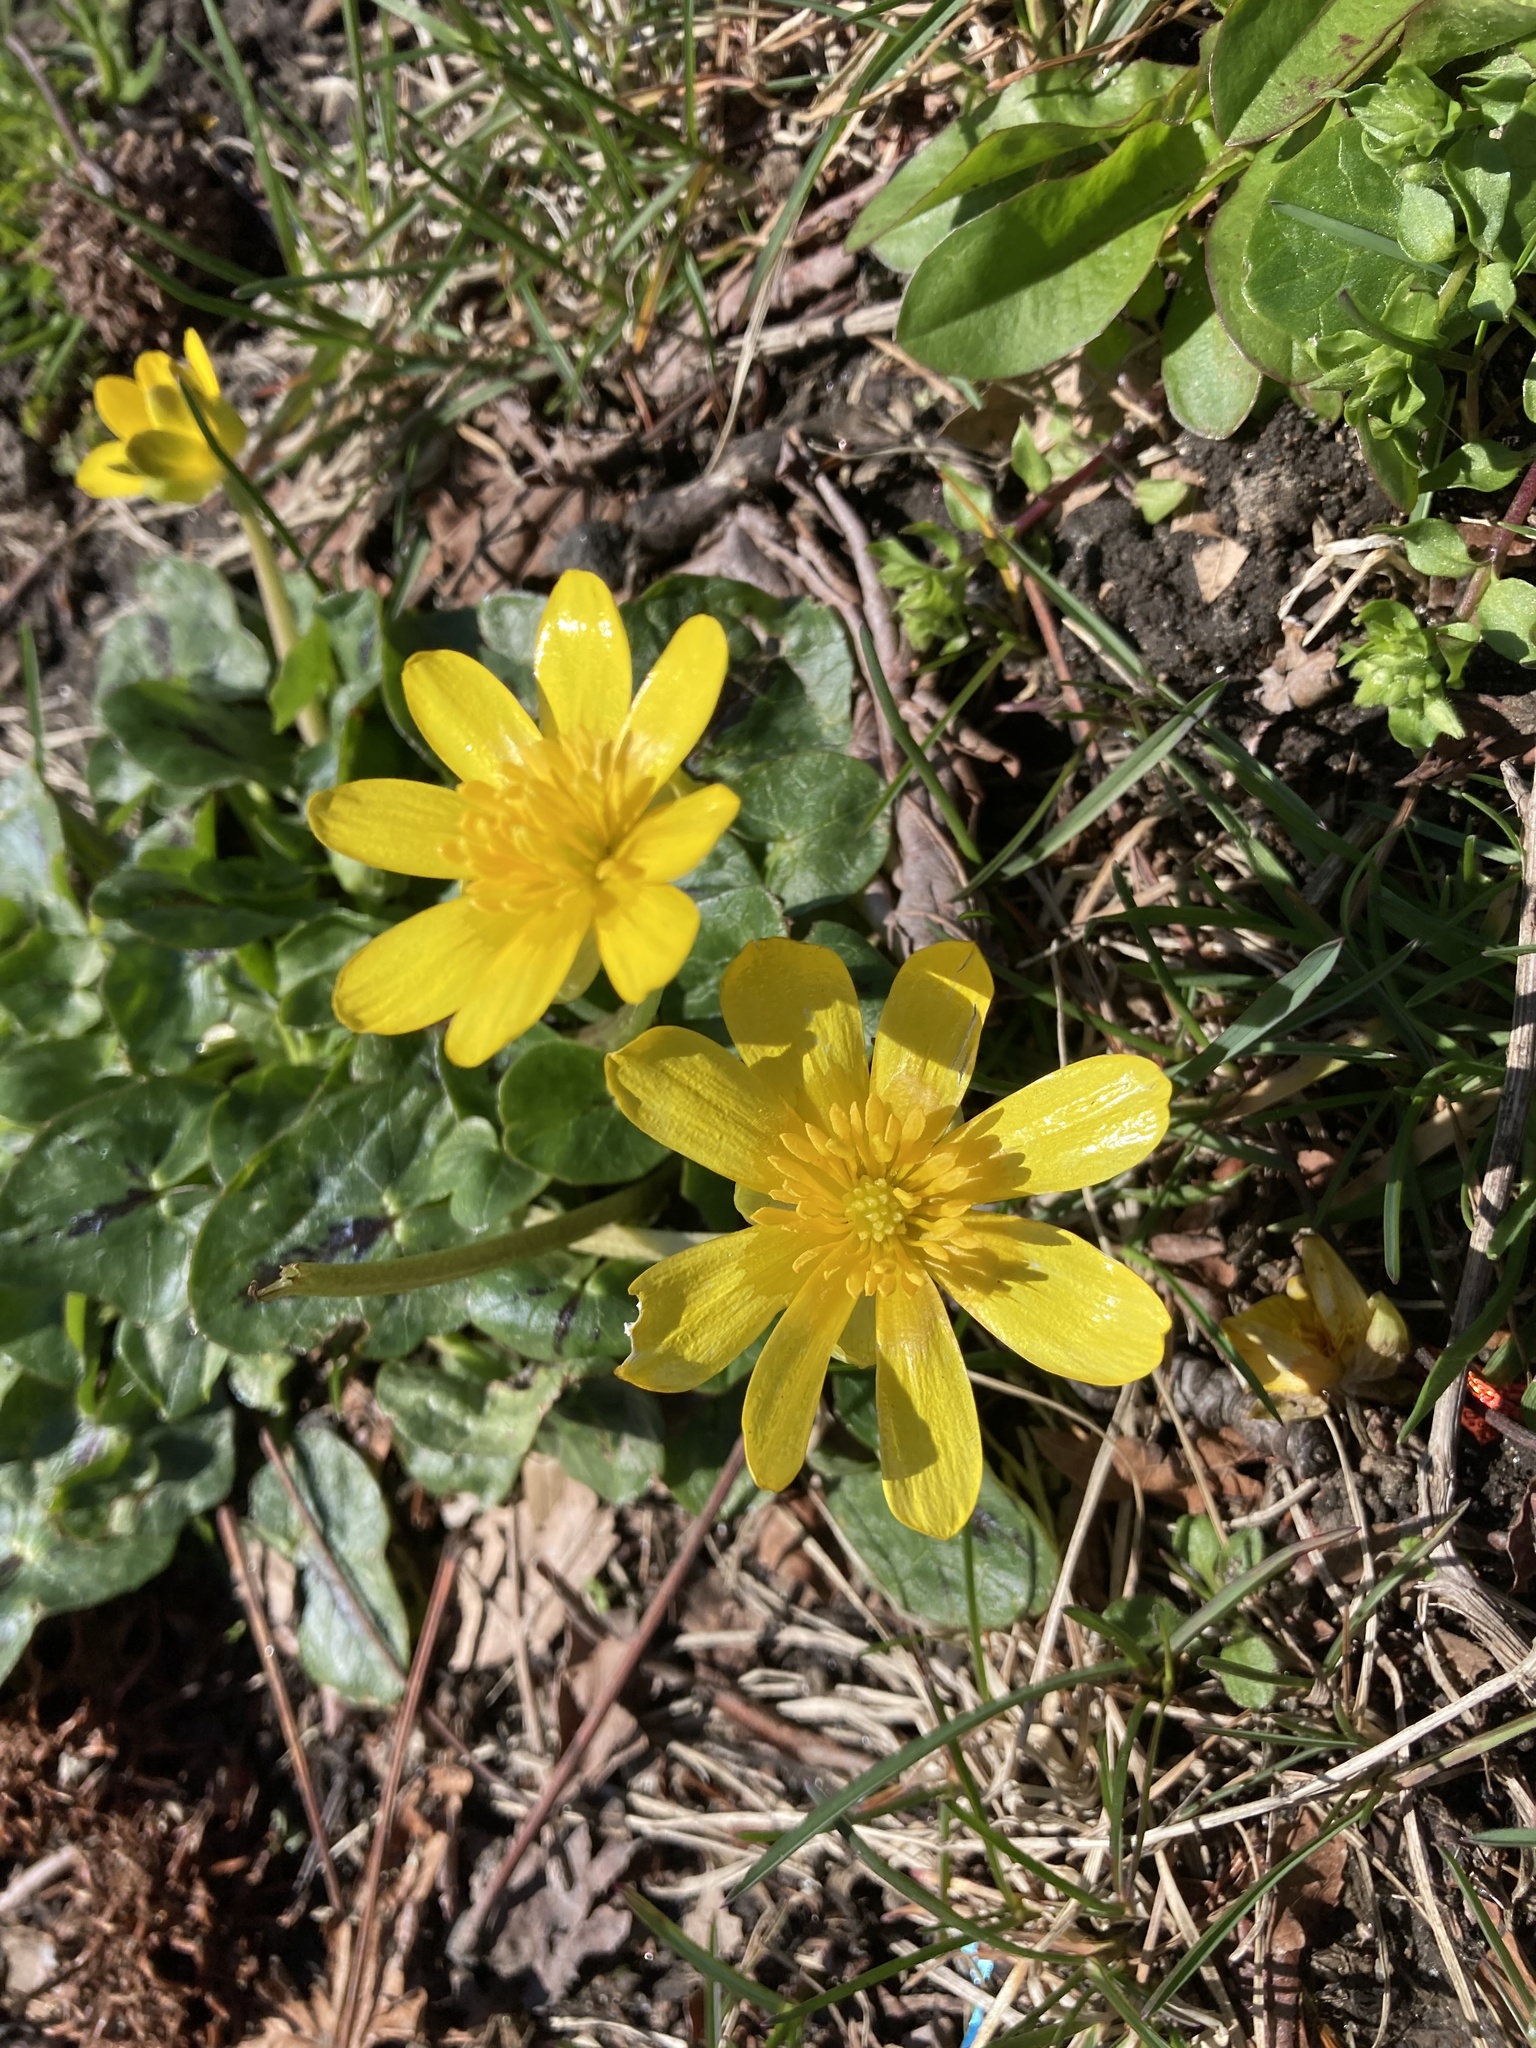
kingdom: Plantae
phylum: Tracheophyta
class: Magnoliopsida
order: Ranunculales
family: Ranunculaceae
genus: Ficaria
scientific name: Ficaria verna
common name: Lesser celandine
